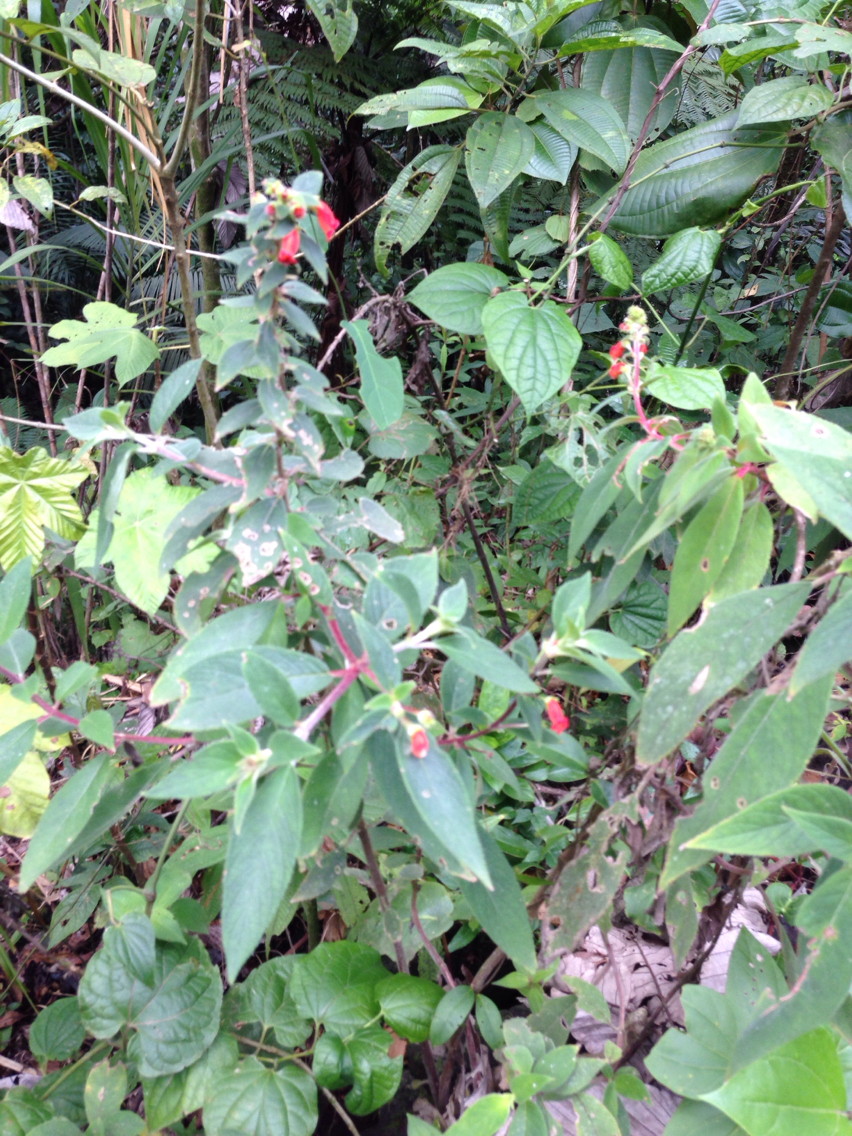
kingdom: Plantae
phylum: Tracheophyta
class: Magnoliopsida
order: Lamiales
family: Gesneriaceae
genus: Kohleria
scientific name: Kohleria spicata
